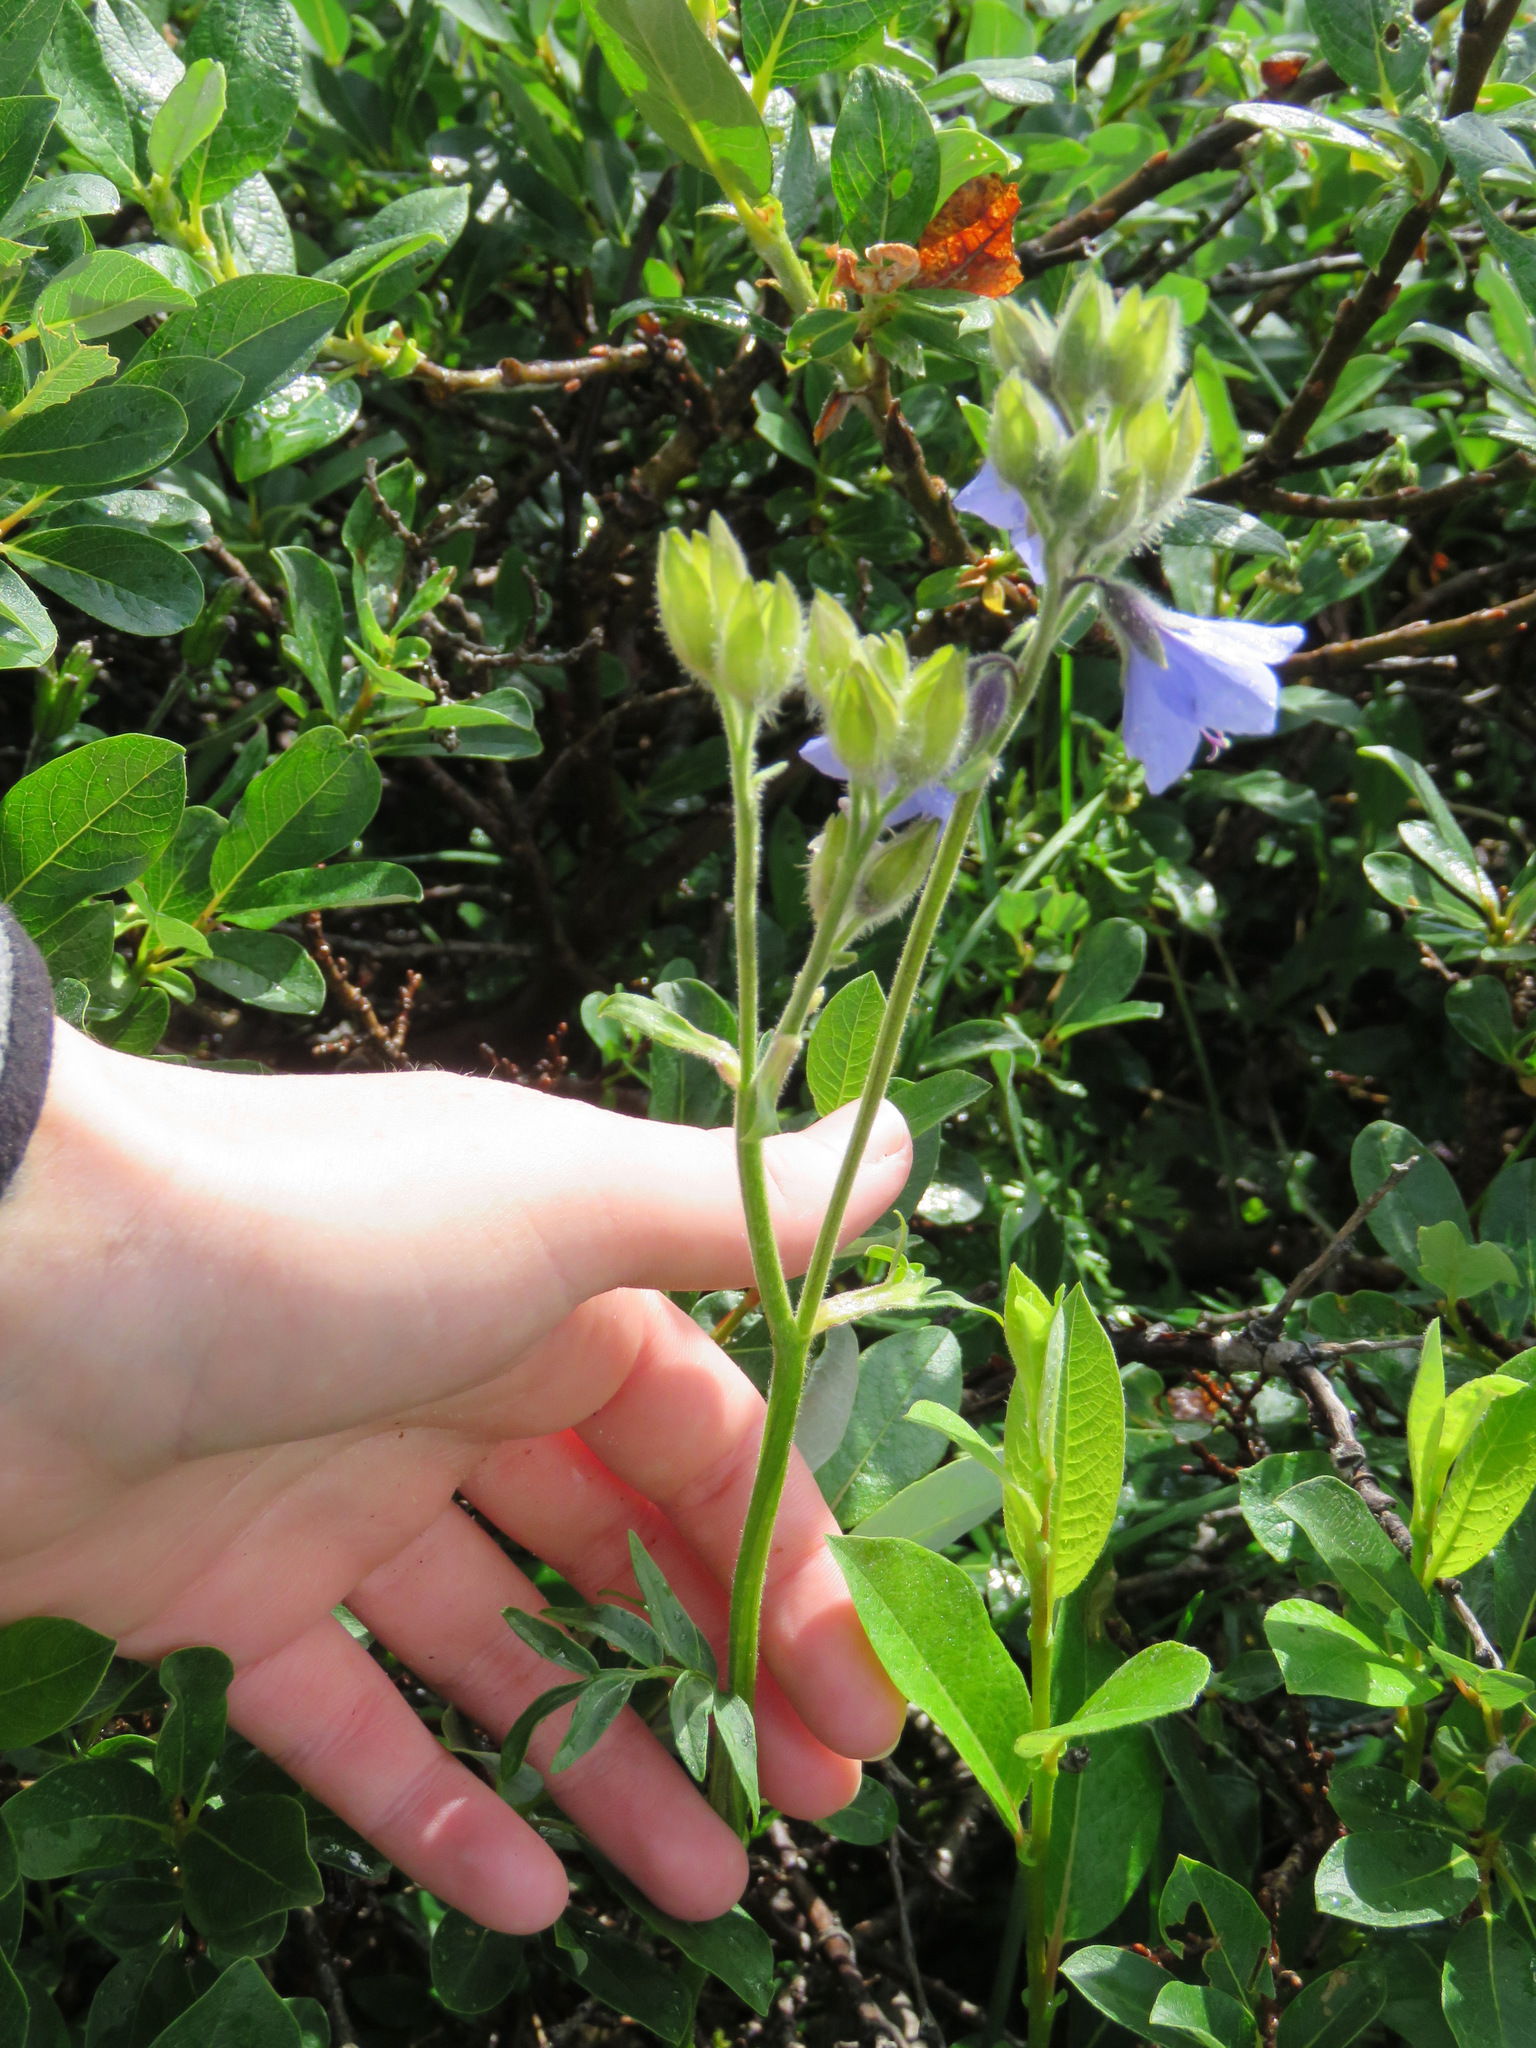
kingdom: Plantae
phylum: Tracheophyta
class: Magnoliopsida
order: Ericales
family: Polemoniaceae
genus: Polemonium
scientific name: Polemonium acutiflorum
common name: Tall jacob's-ladder
